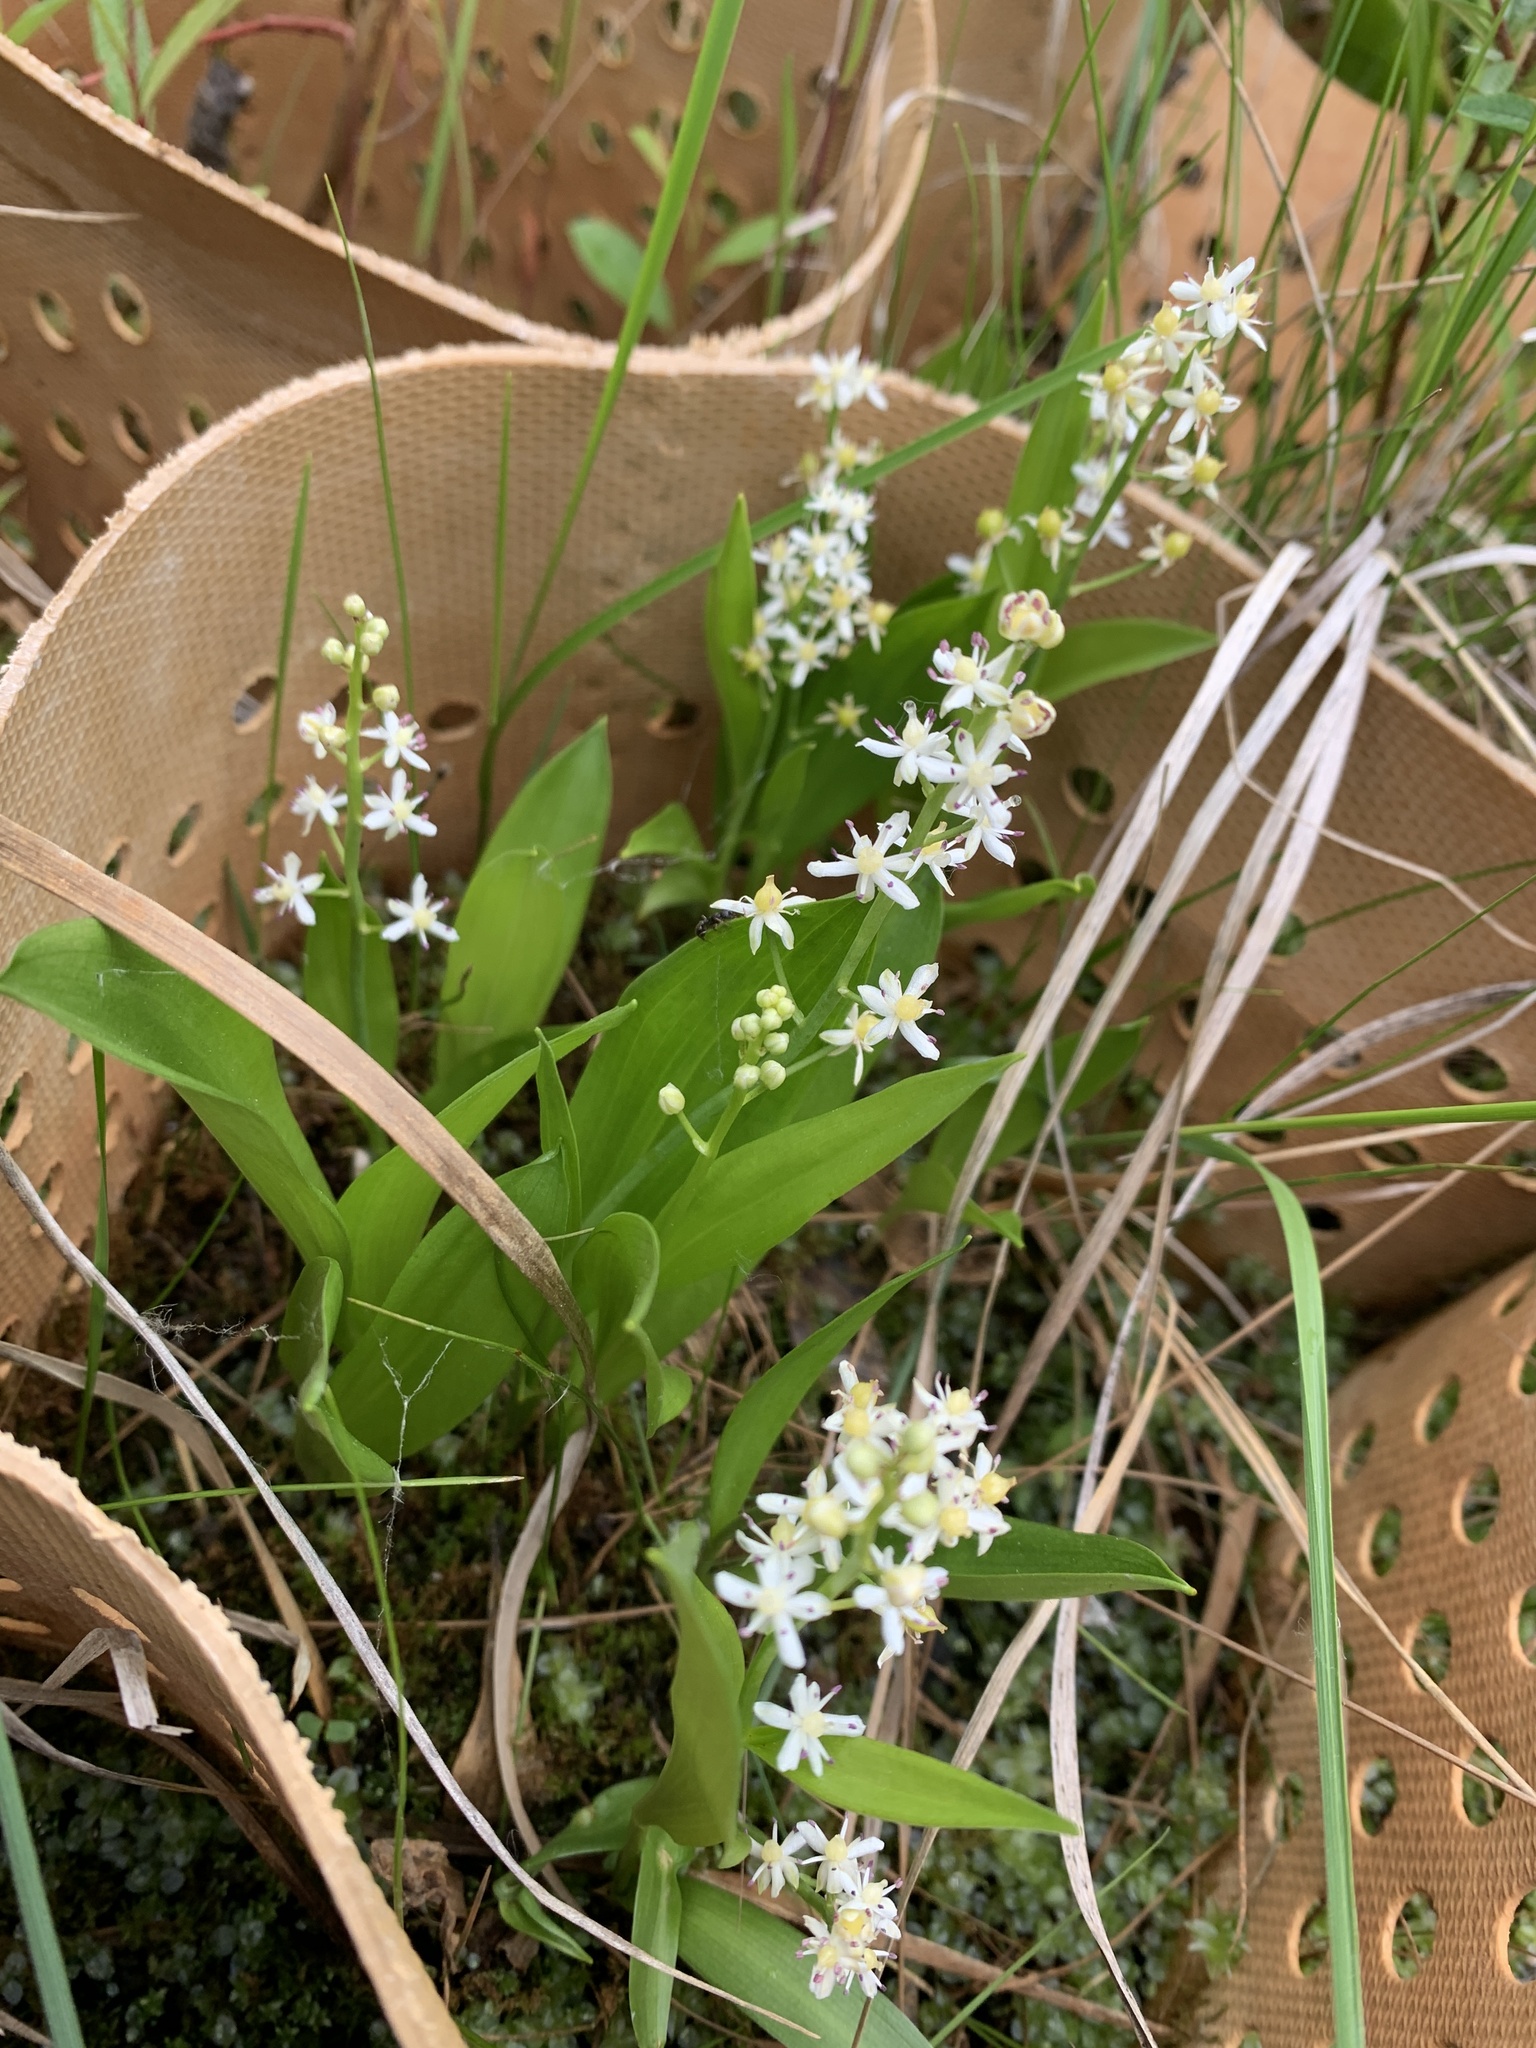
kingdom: Plantae
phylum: Tracheophyta
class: Liliopsida
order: Asparagales
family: Asparagaceae
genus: Maianthemum
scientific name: Maianthemum trifolium
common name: Swamp false solomon's seal
